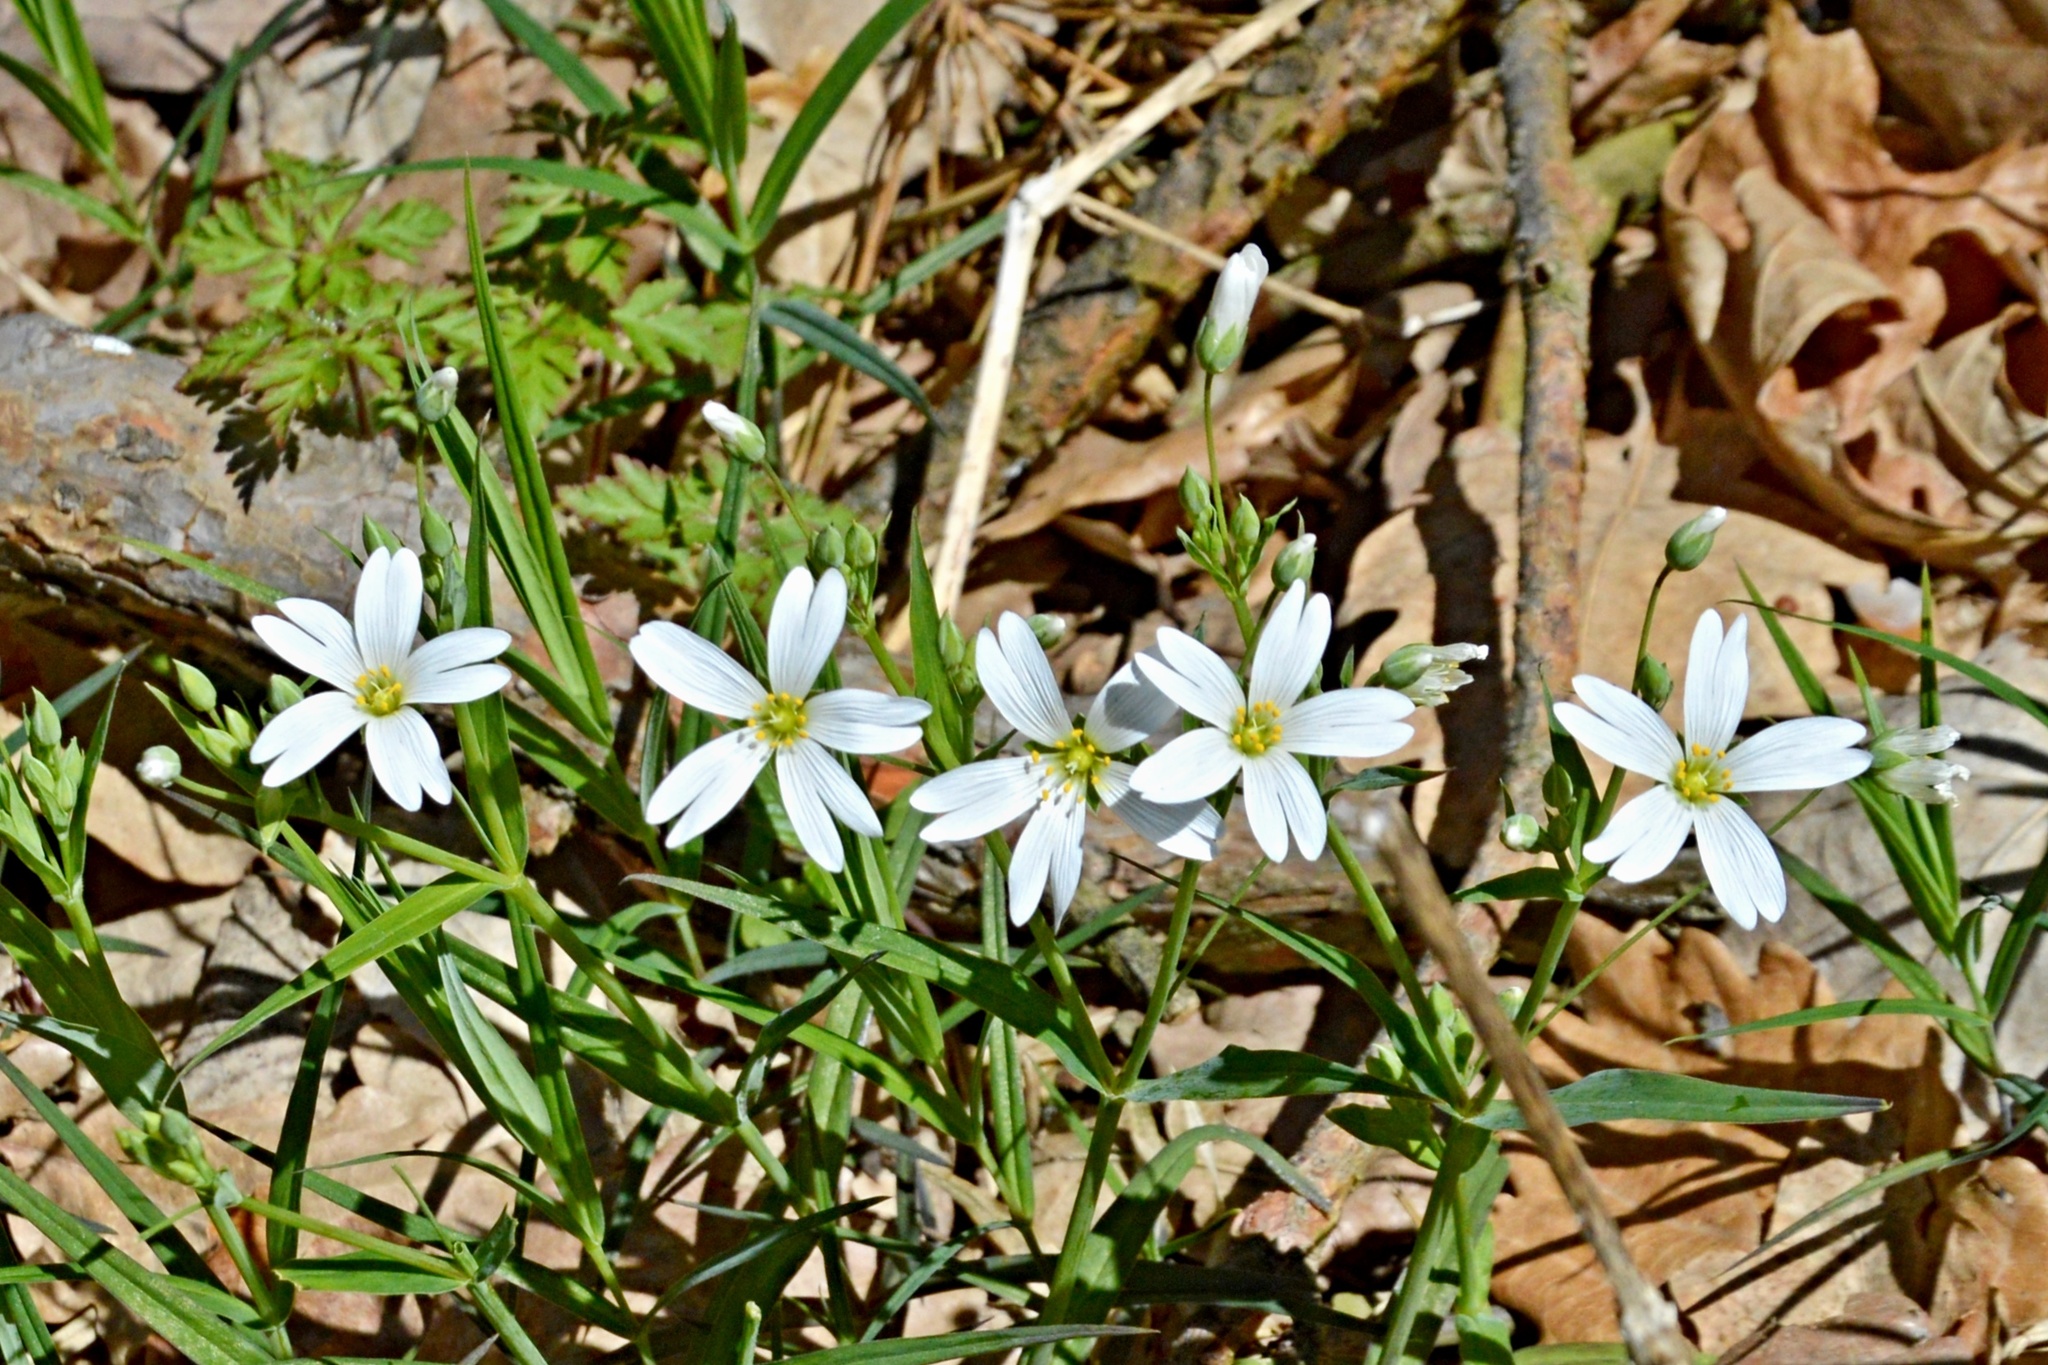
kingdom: Plantae
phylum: Tracheophyta
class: Magnoliopsida
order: Caryophyllales
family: Caryophyllaceae
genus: Rabelera
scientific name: Rabelera holostea
